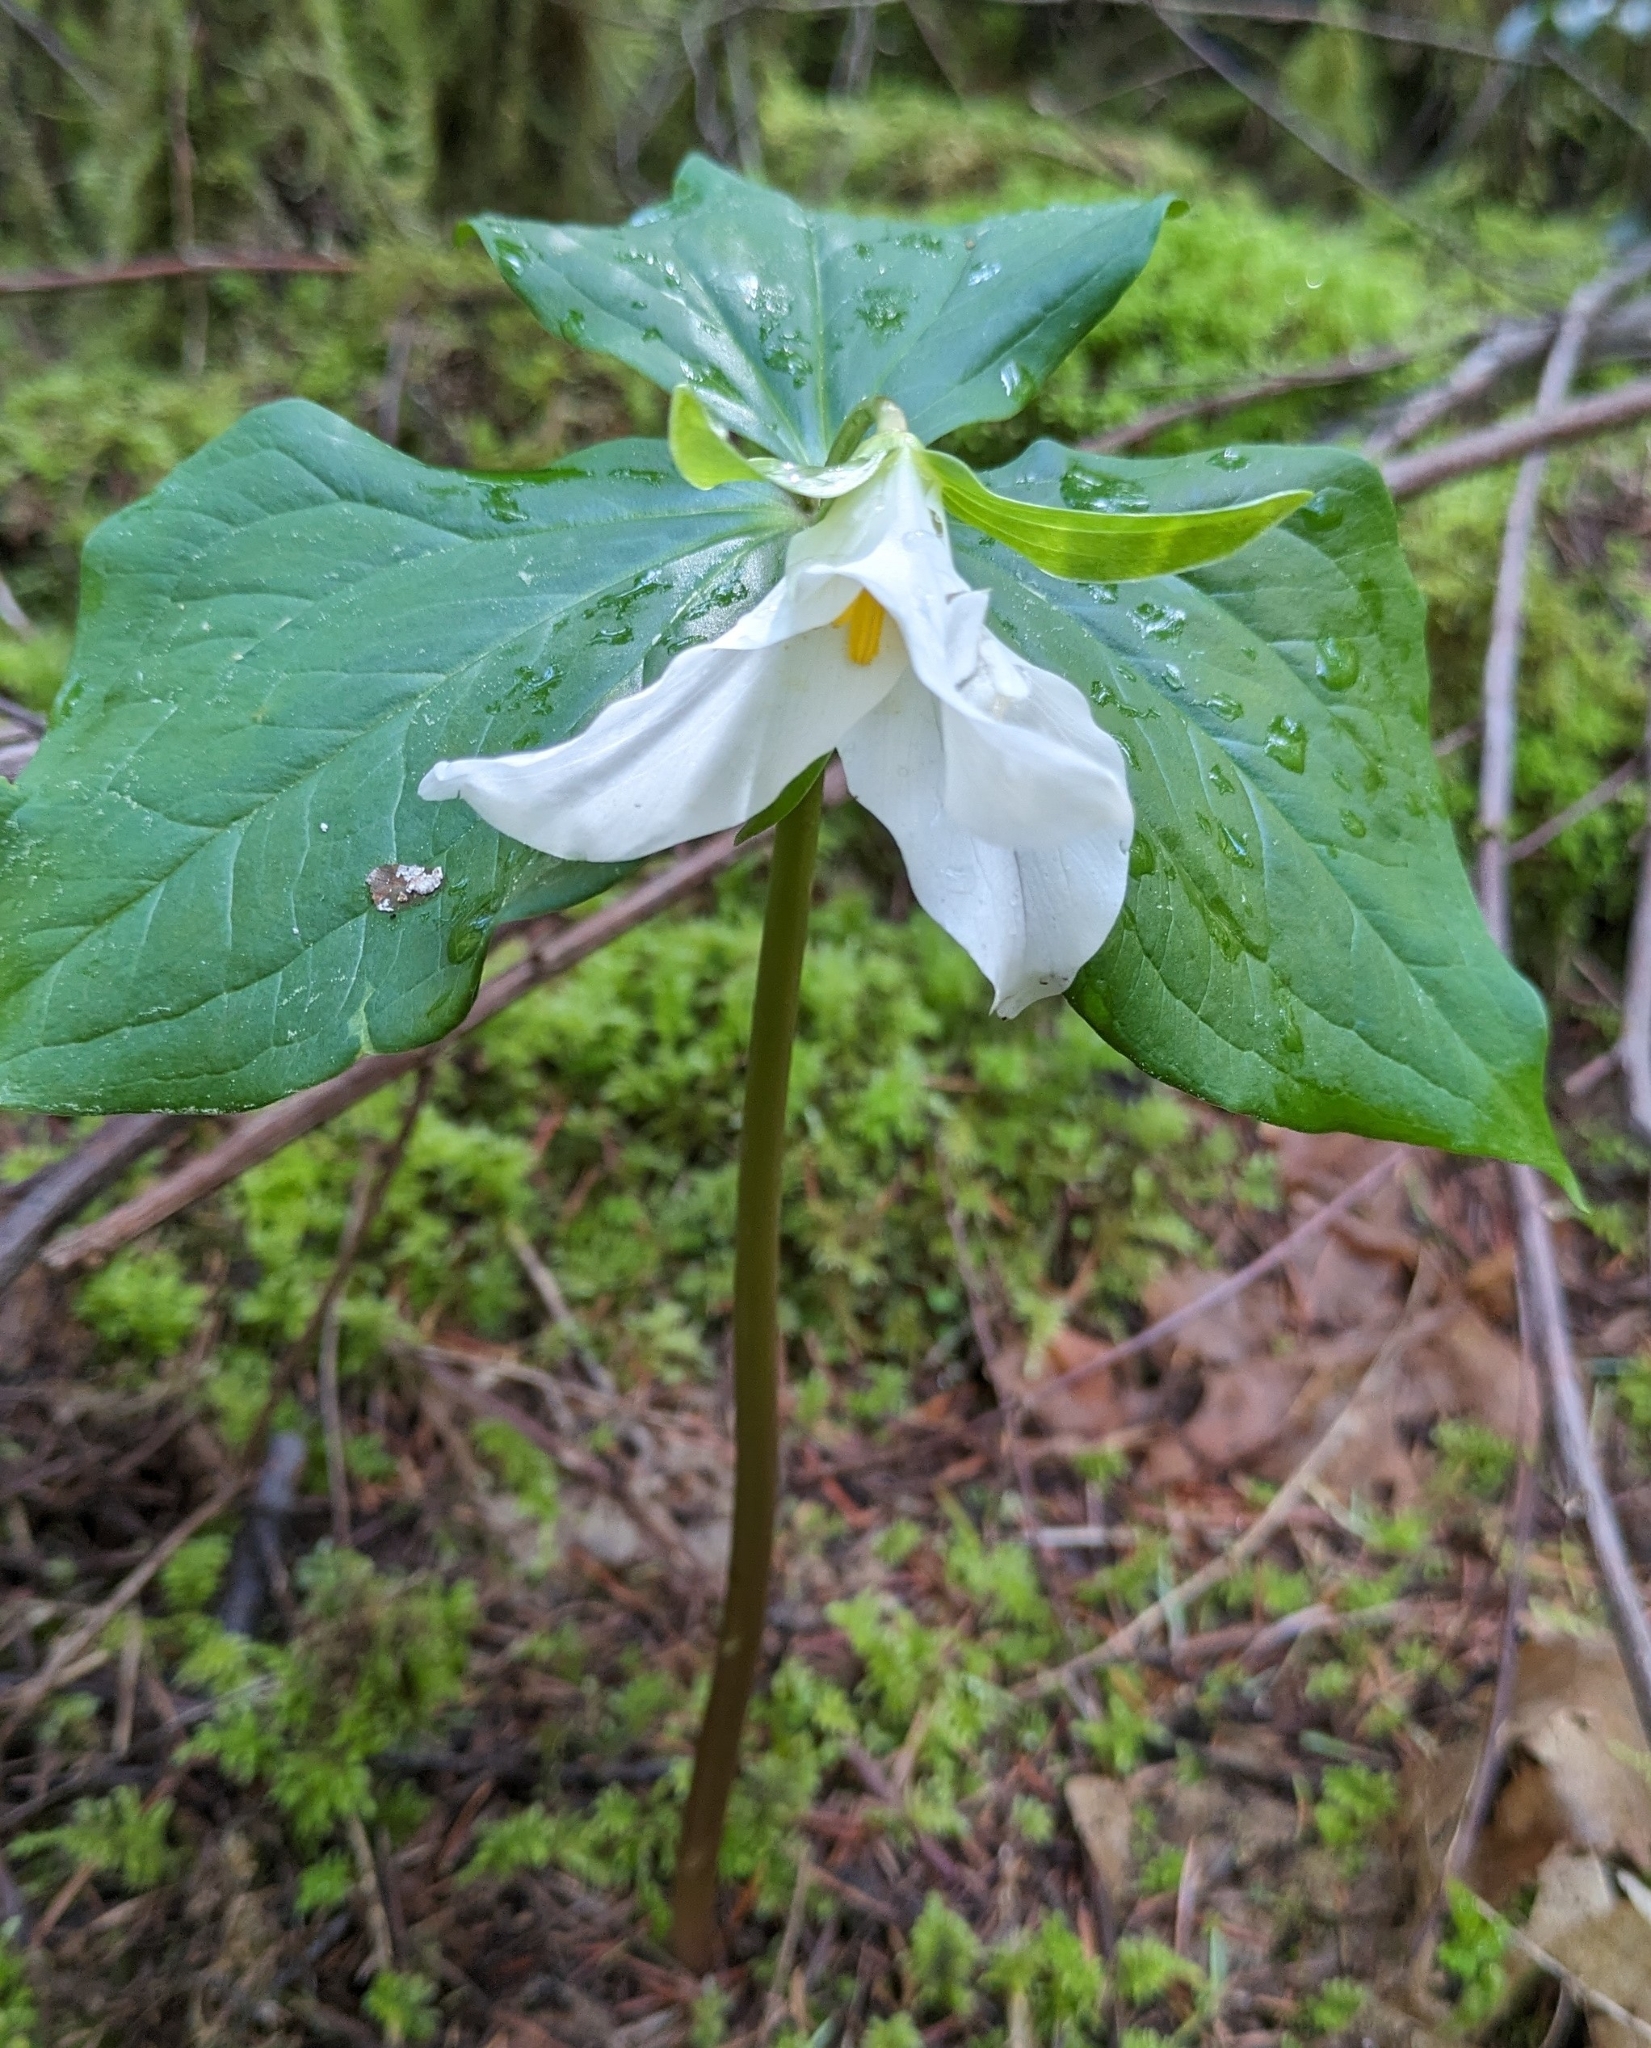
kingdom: Plantae
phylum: Tracheophyta
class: Liliopsida
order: Liliales
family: Melanthiaceae
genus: Trillium
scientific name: Trillium ovatum
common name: Pacific trillium
